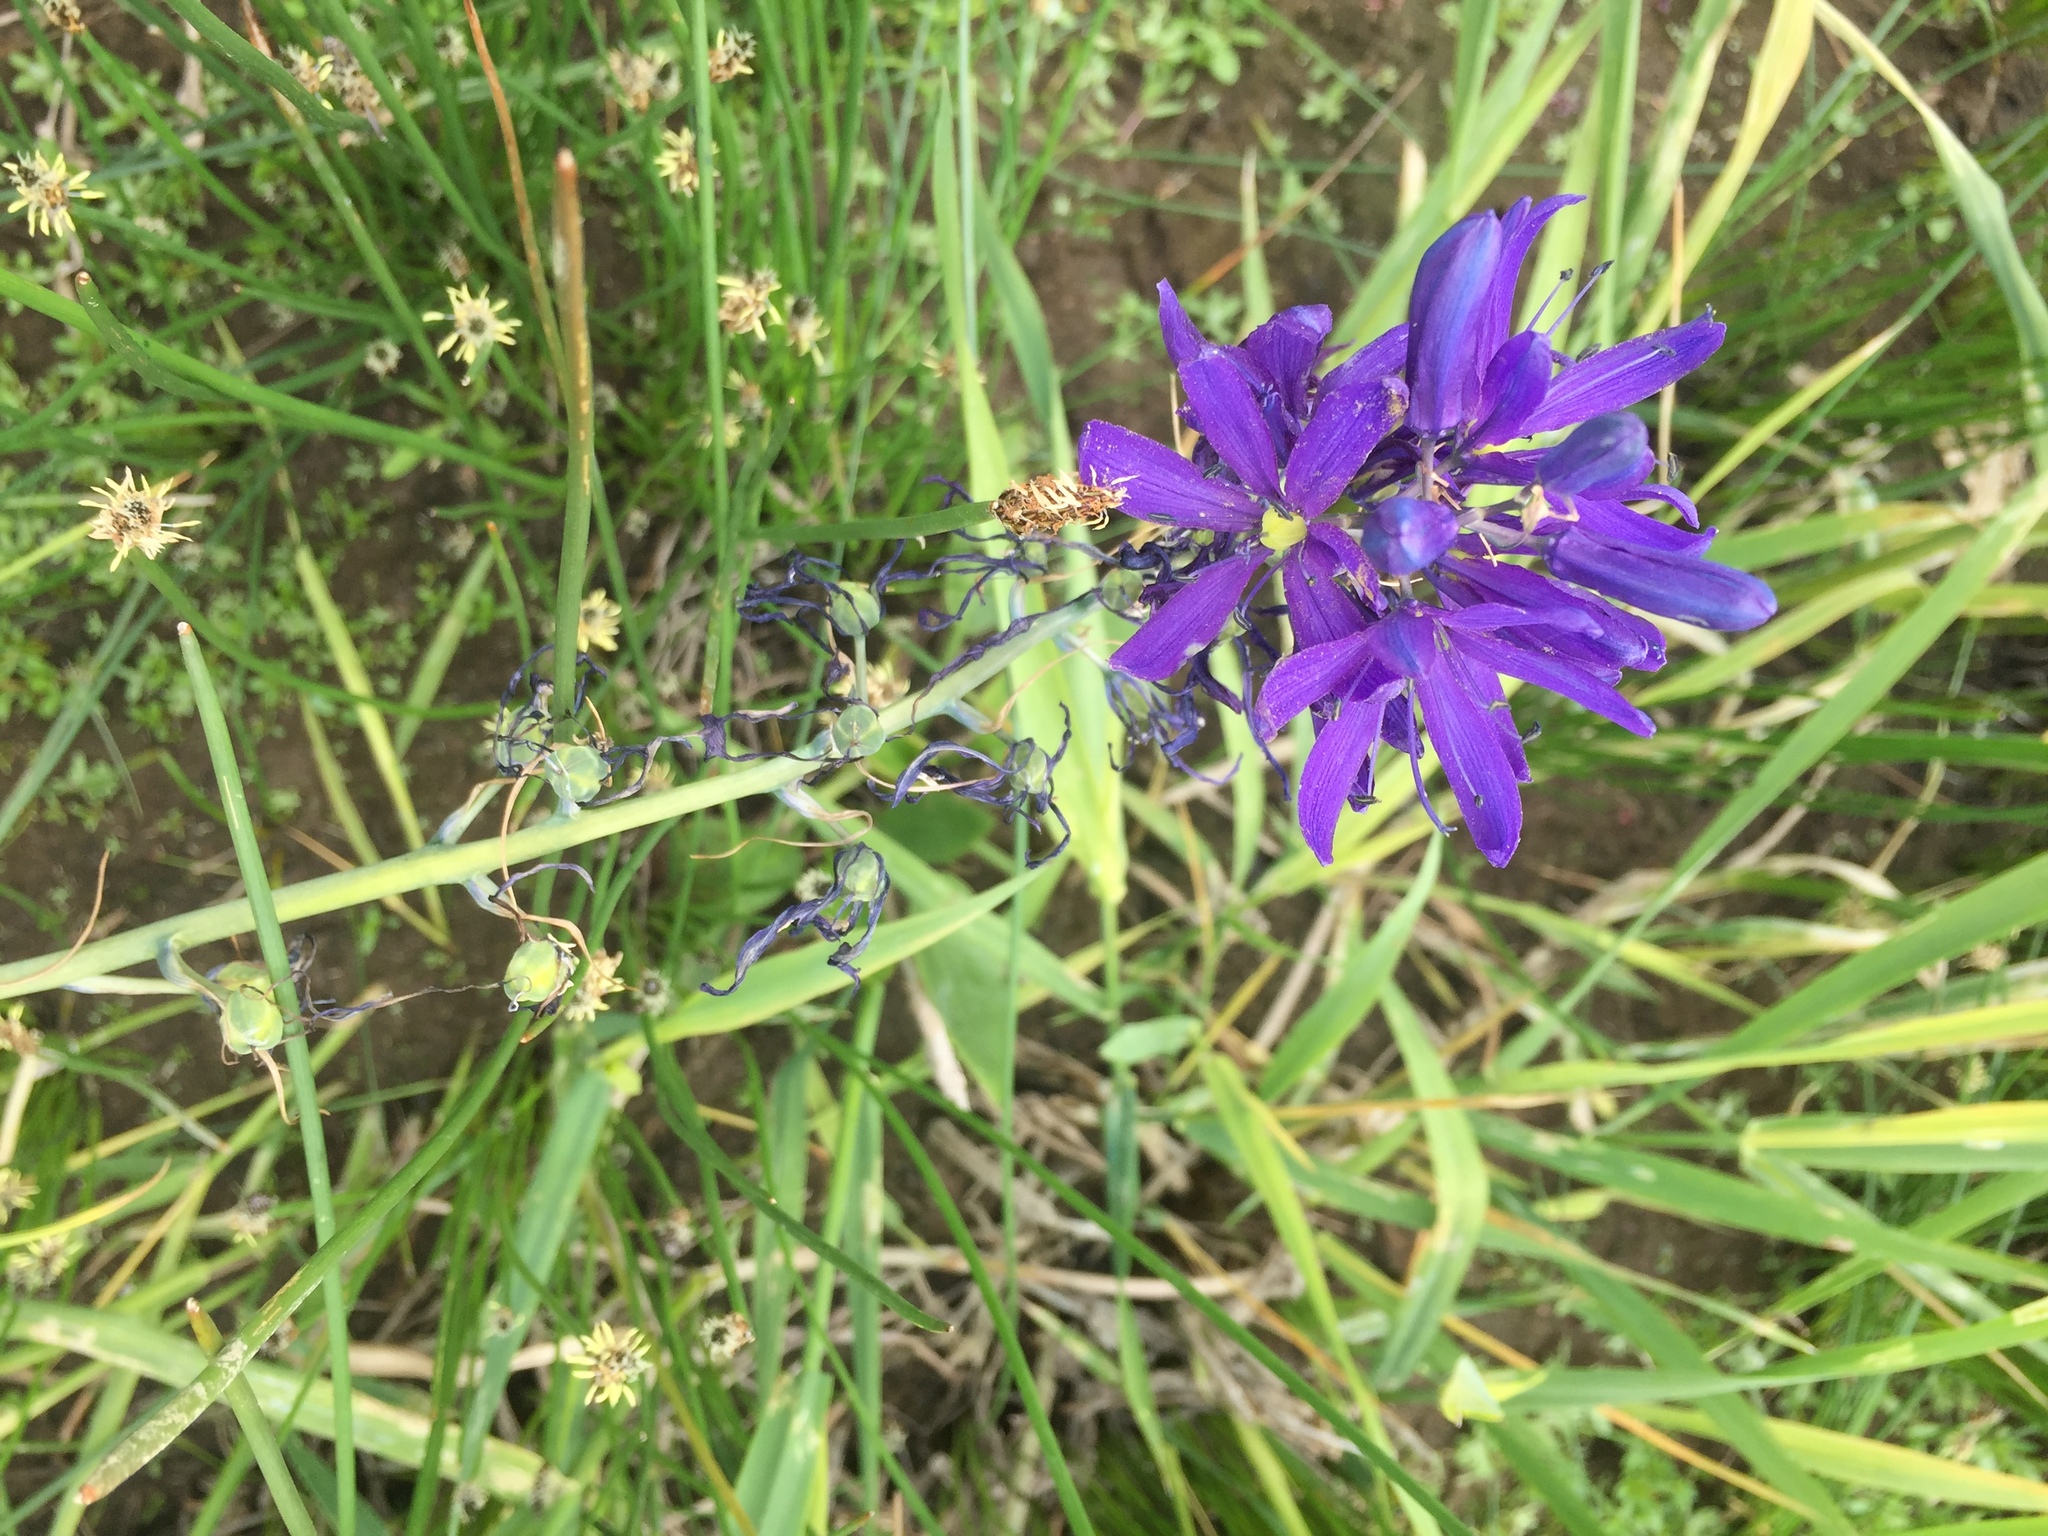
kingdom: Plantae
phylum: Tracheophyta
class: Liliopsida
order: Asparagales
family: Asparagaceae
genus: Camassia
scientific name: Camassia quamash
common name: Common camas
